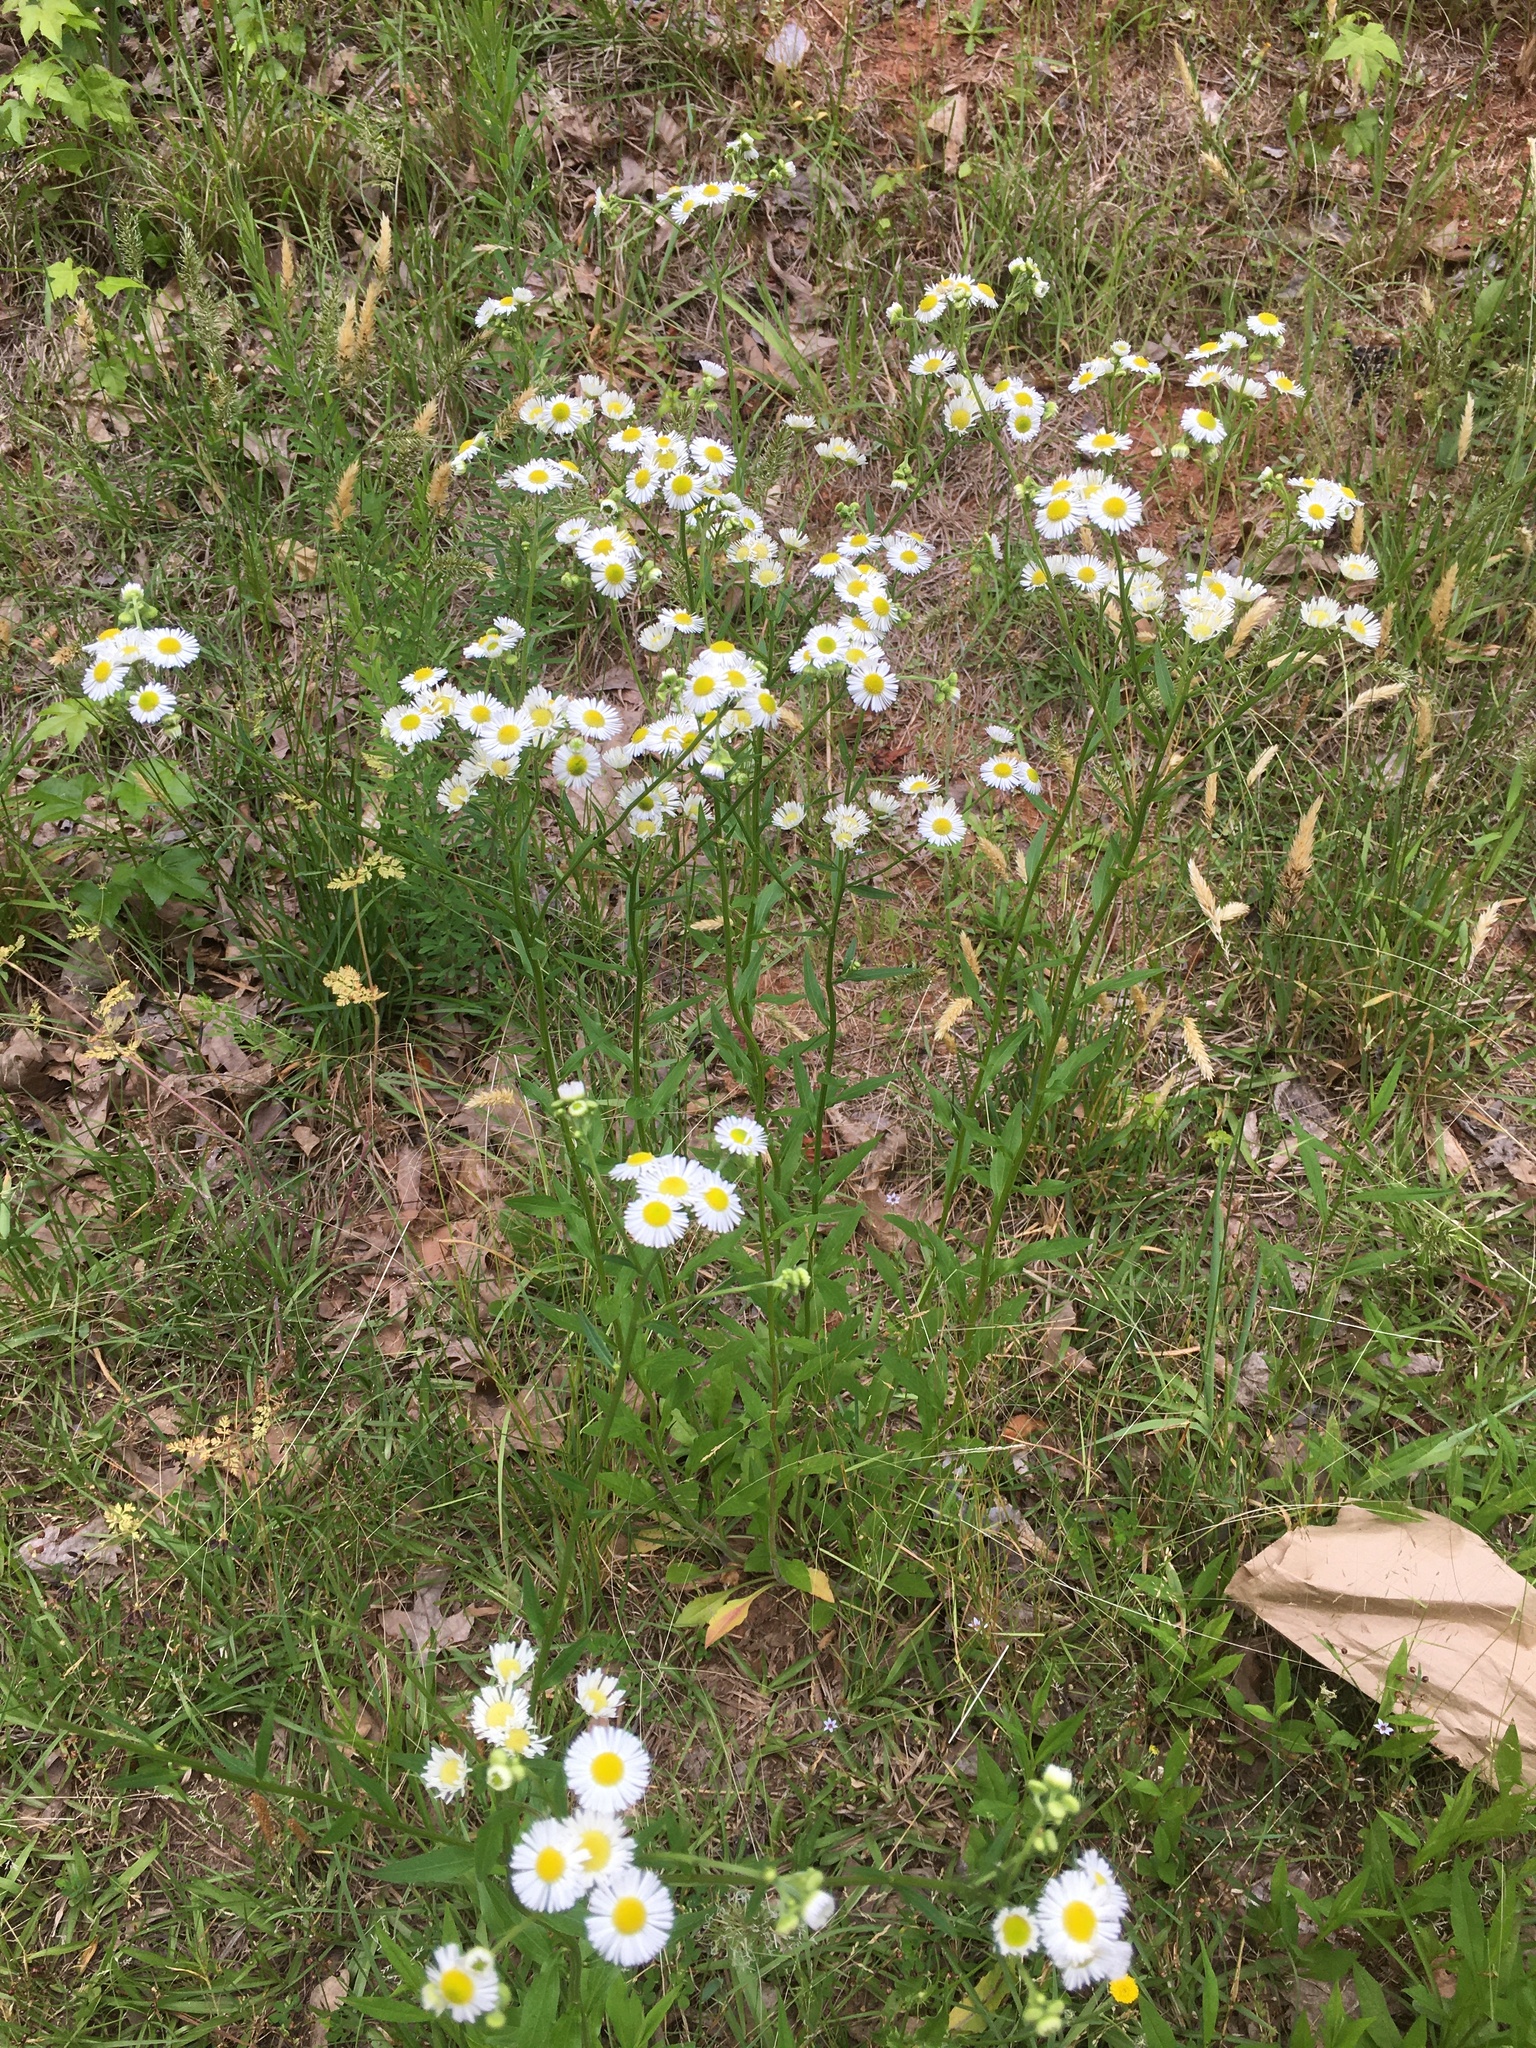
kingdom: Plantae
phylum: Tracheophyta
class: Magnoliopsida
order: Asterales
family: Asteraceae
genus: Erigeron
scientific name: Erigeron strigosus
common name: Common eastern fleabane
